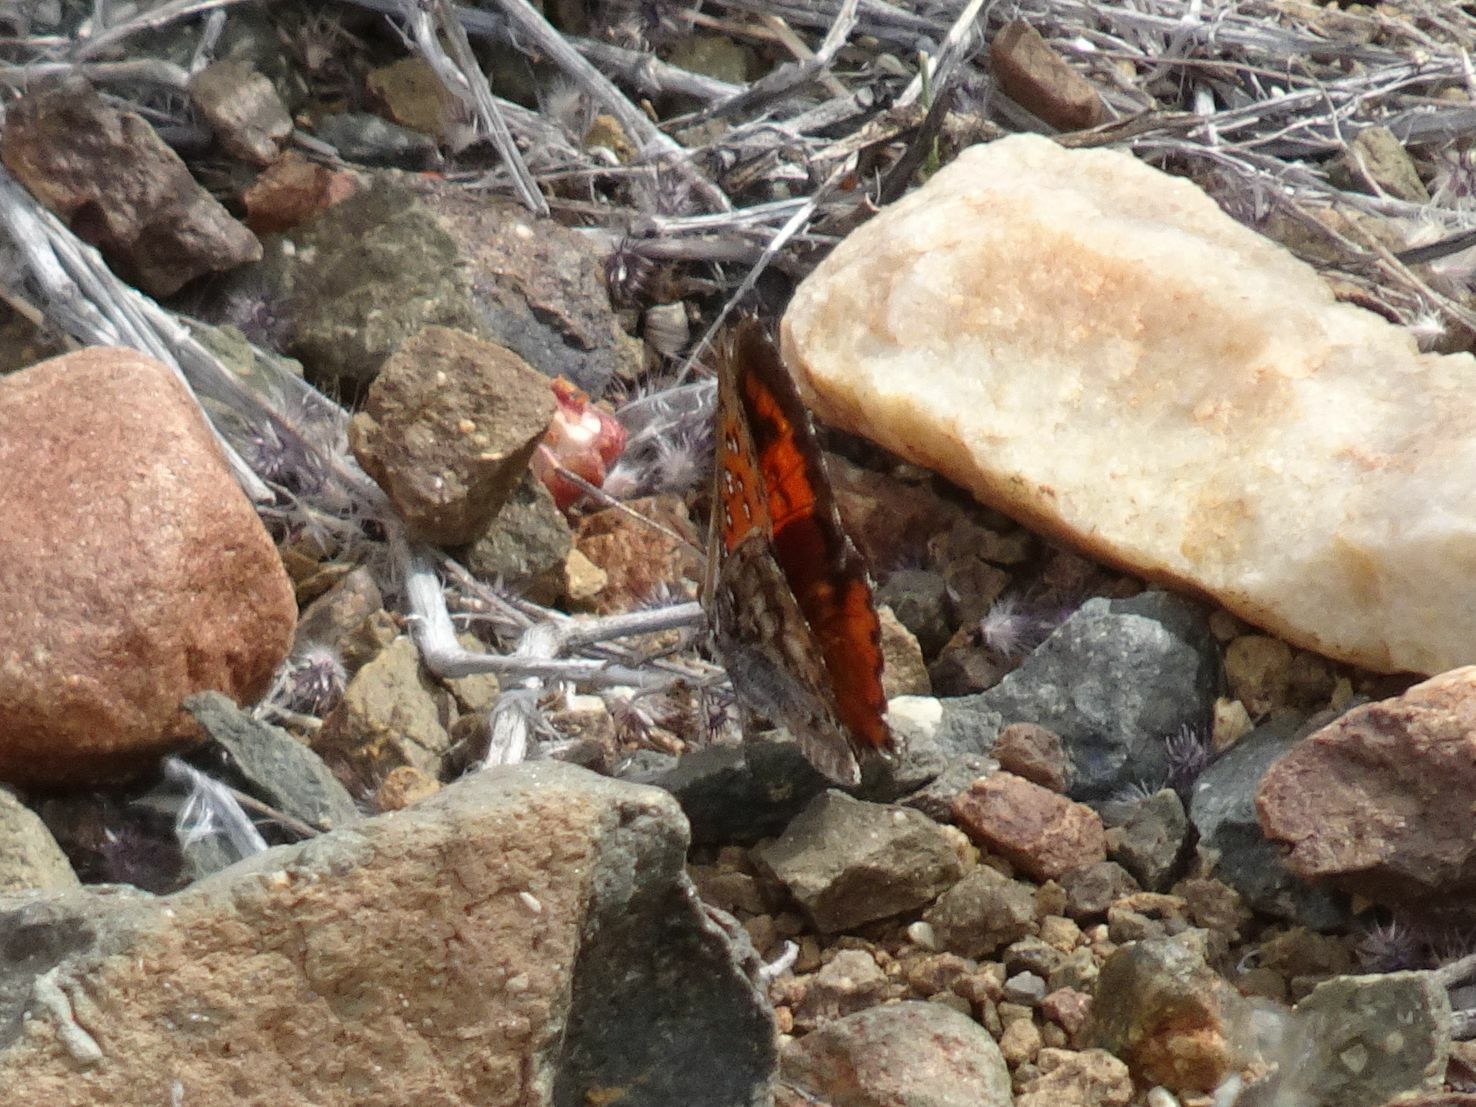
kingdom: Animalia
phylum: Arthropoda
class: Insecta
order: Lepidoptera
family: Lycaenidae
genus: Aloeides
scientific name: Aloeides pierus
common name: Dull copper
